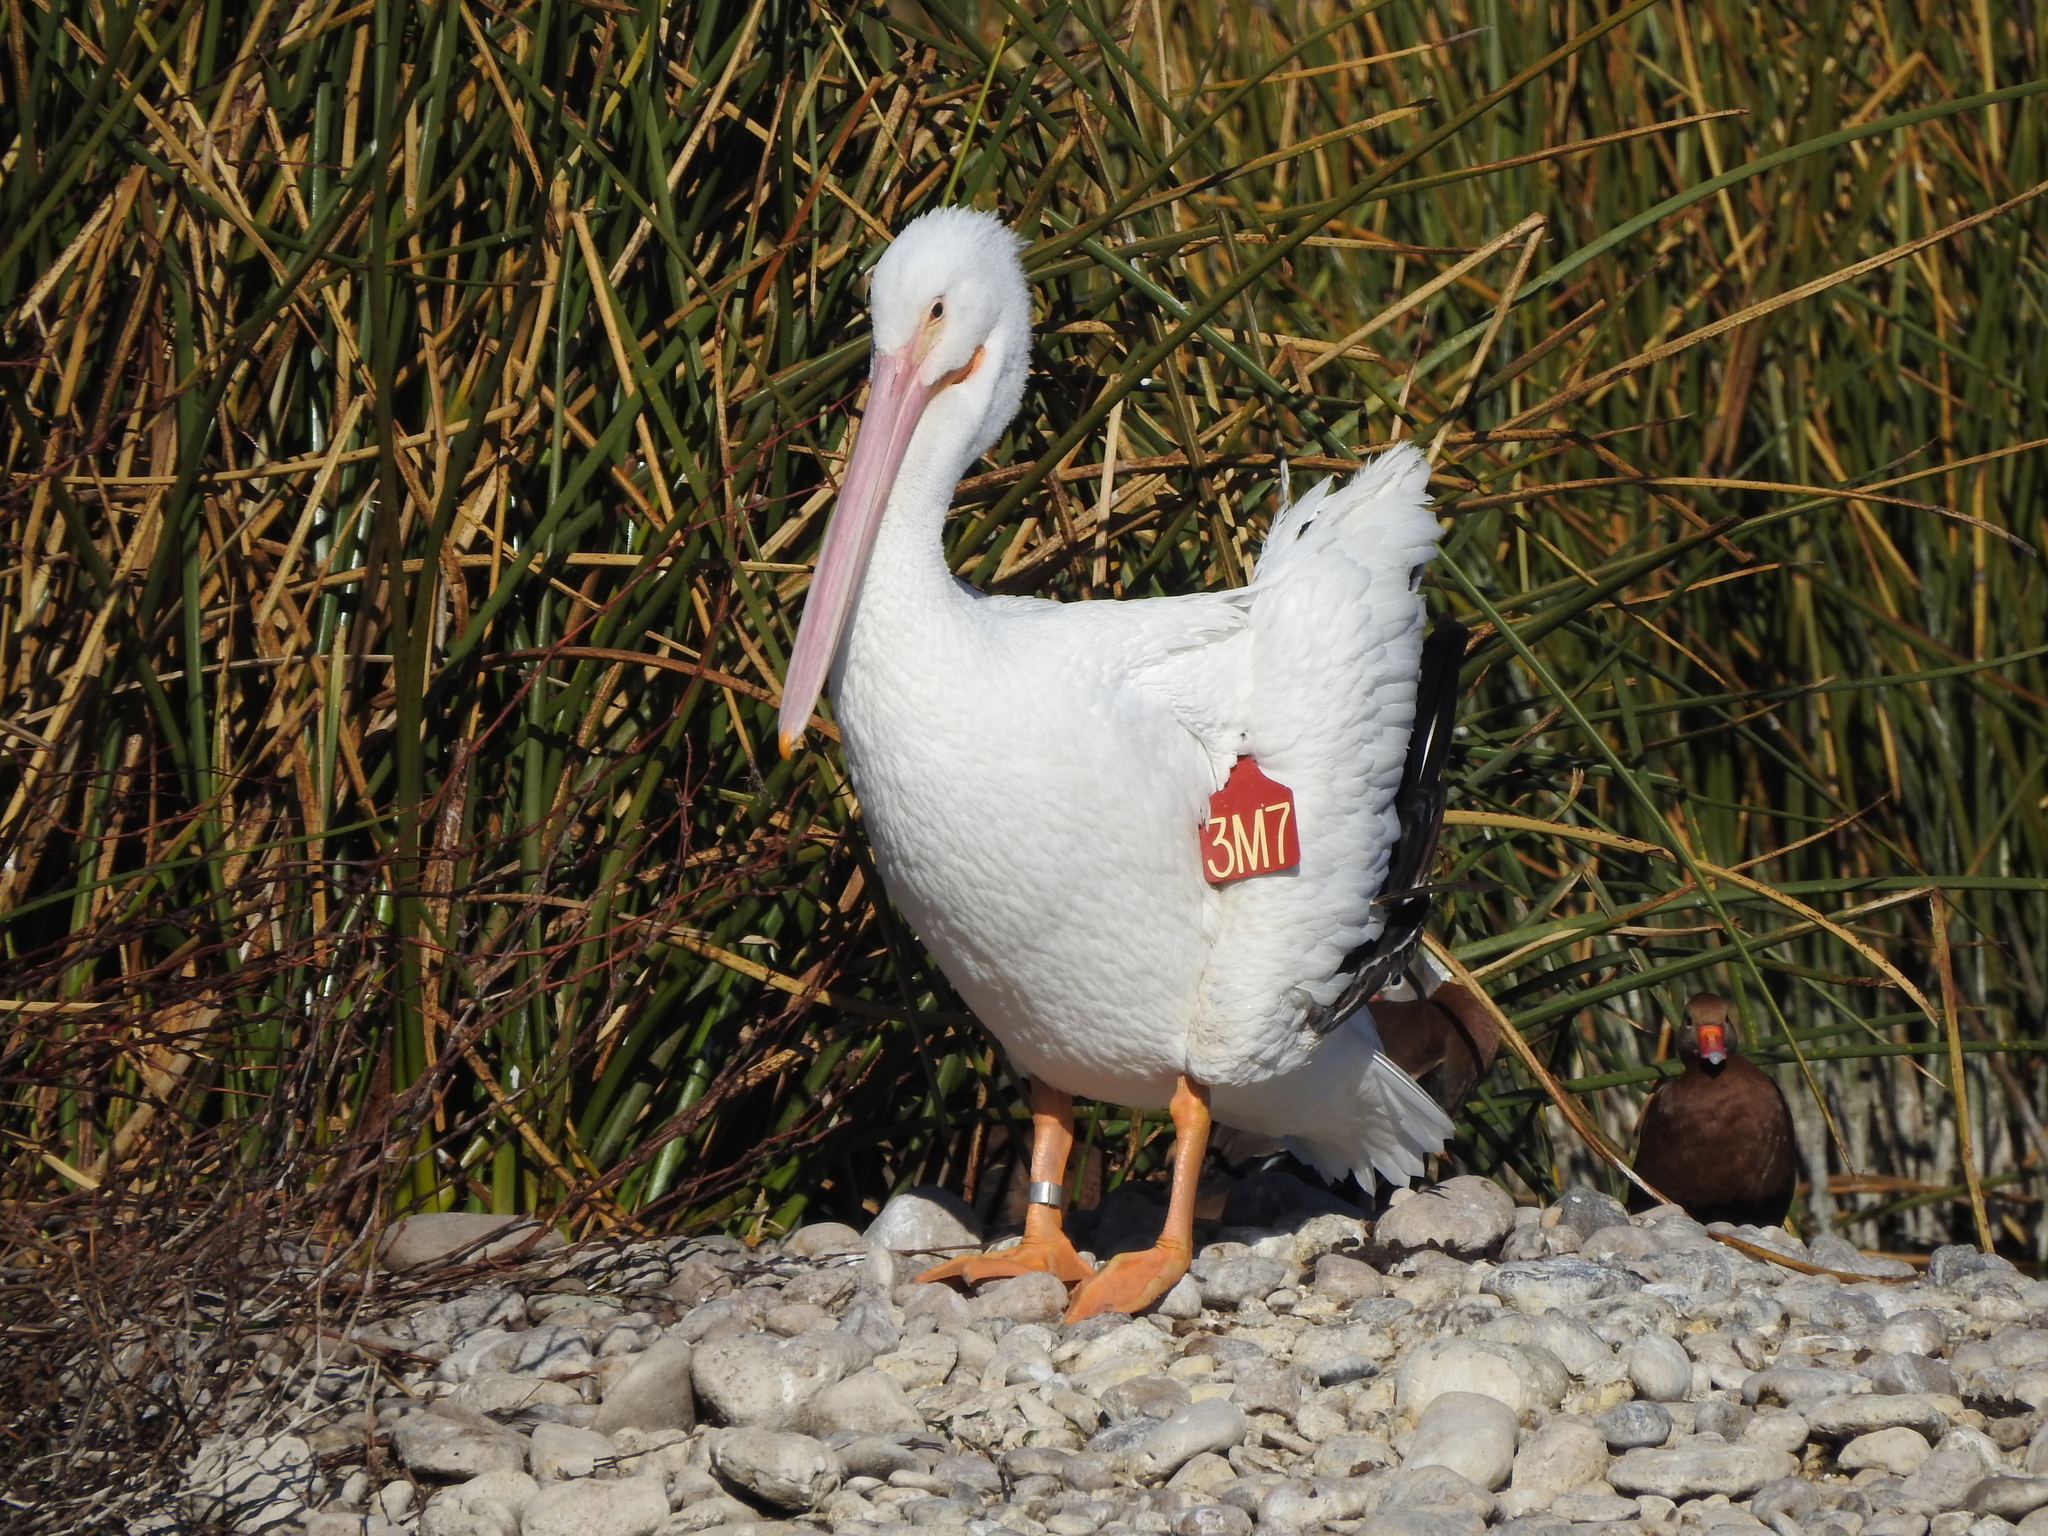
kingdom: Animalia
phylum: Chordata
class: Aves
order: Pelecaniformes
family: Pelecanidae
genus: Pelecanus
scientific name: Pelecanus erythrorhynchos
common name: American white pelican
